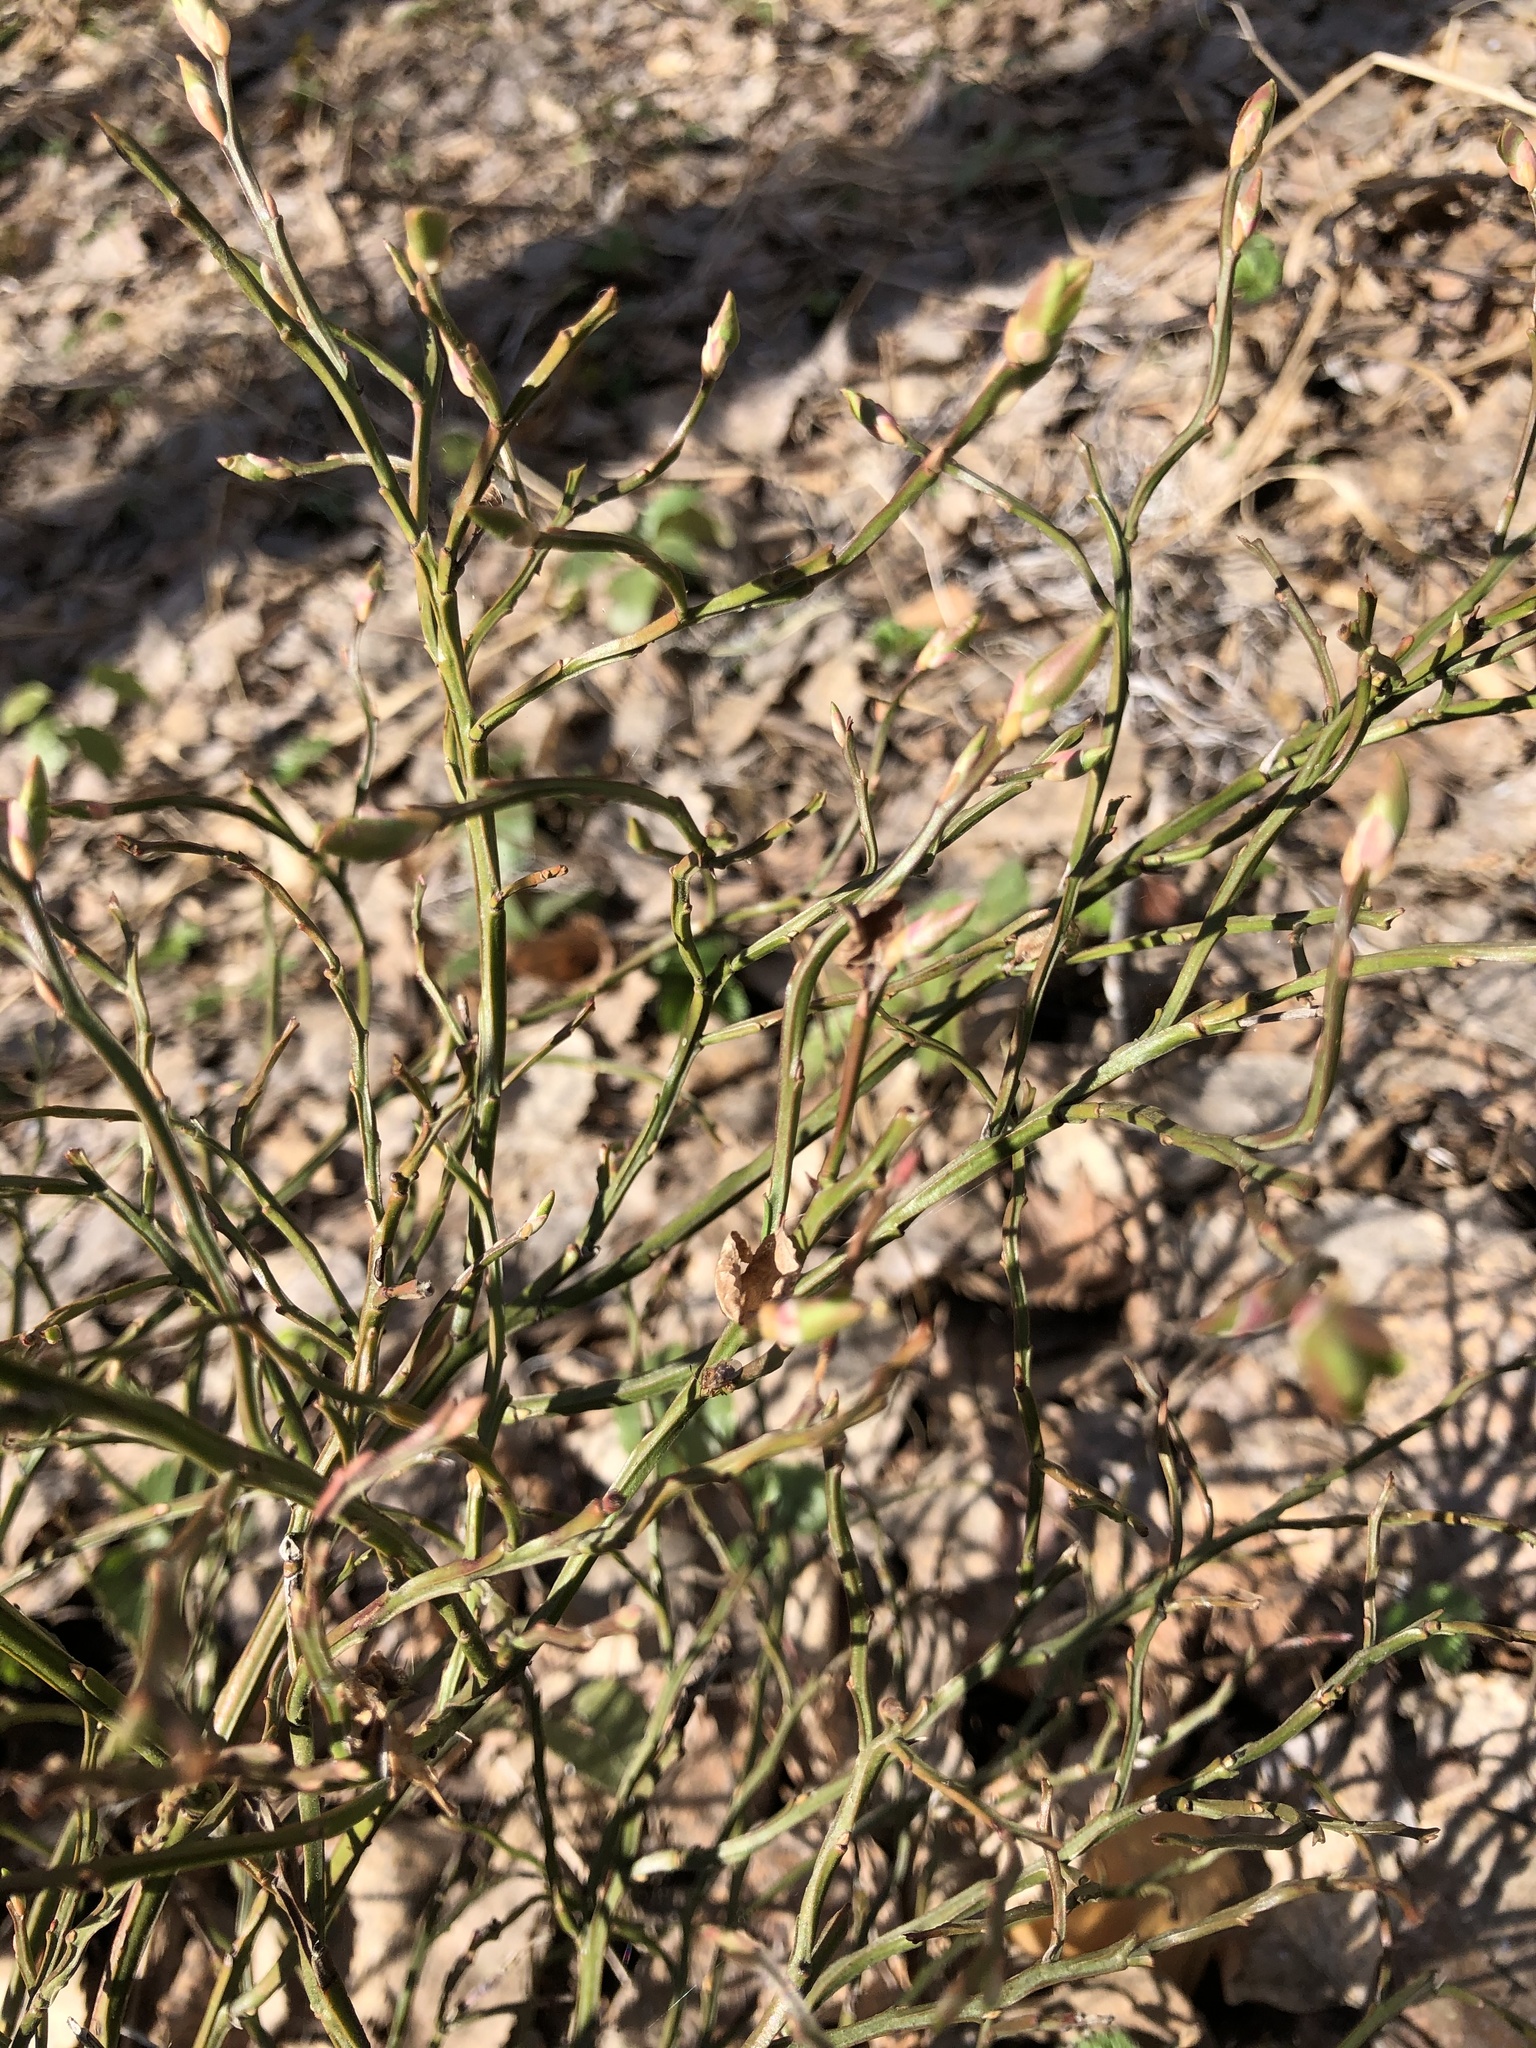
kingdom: Plantae
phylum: Tracheophyta
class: Magnoliopsida
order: Ericales
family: Ericaceae
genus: Vaccinium
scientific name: Vaccinium myrtillus
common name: Bilberry
